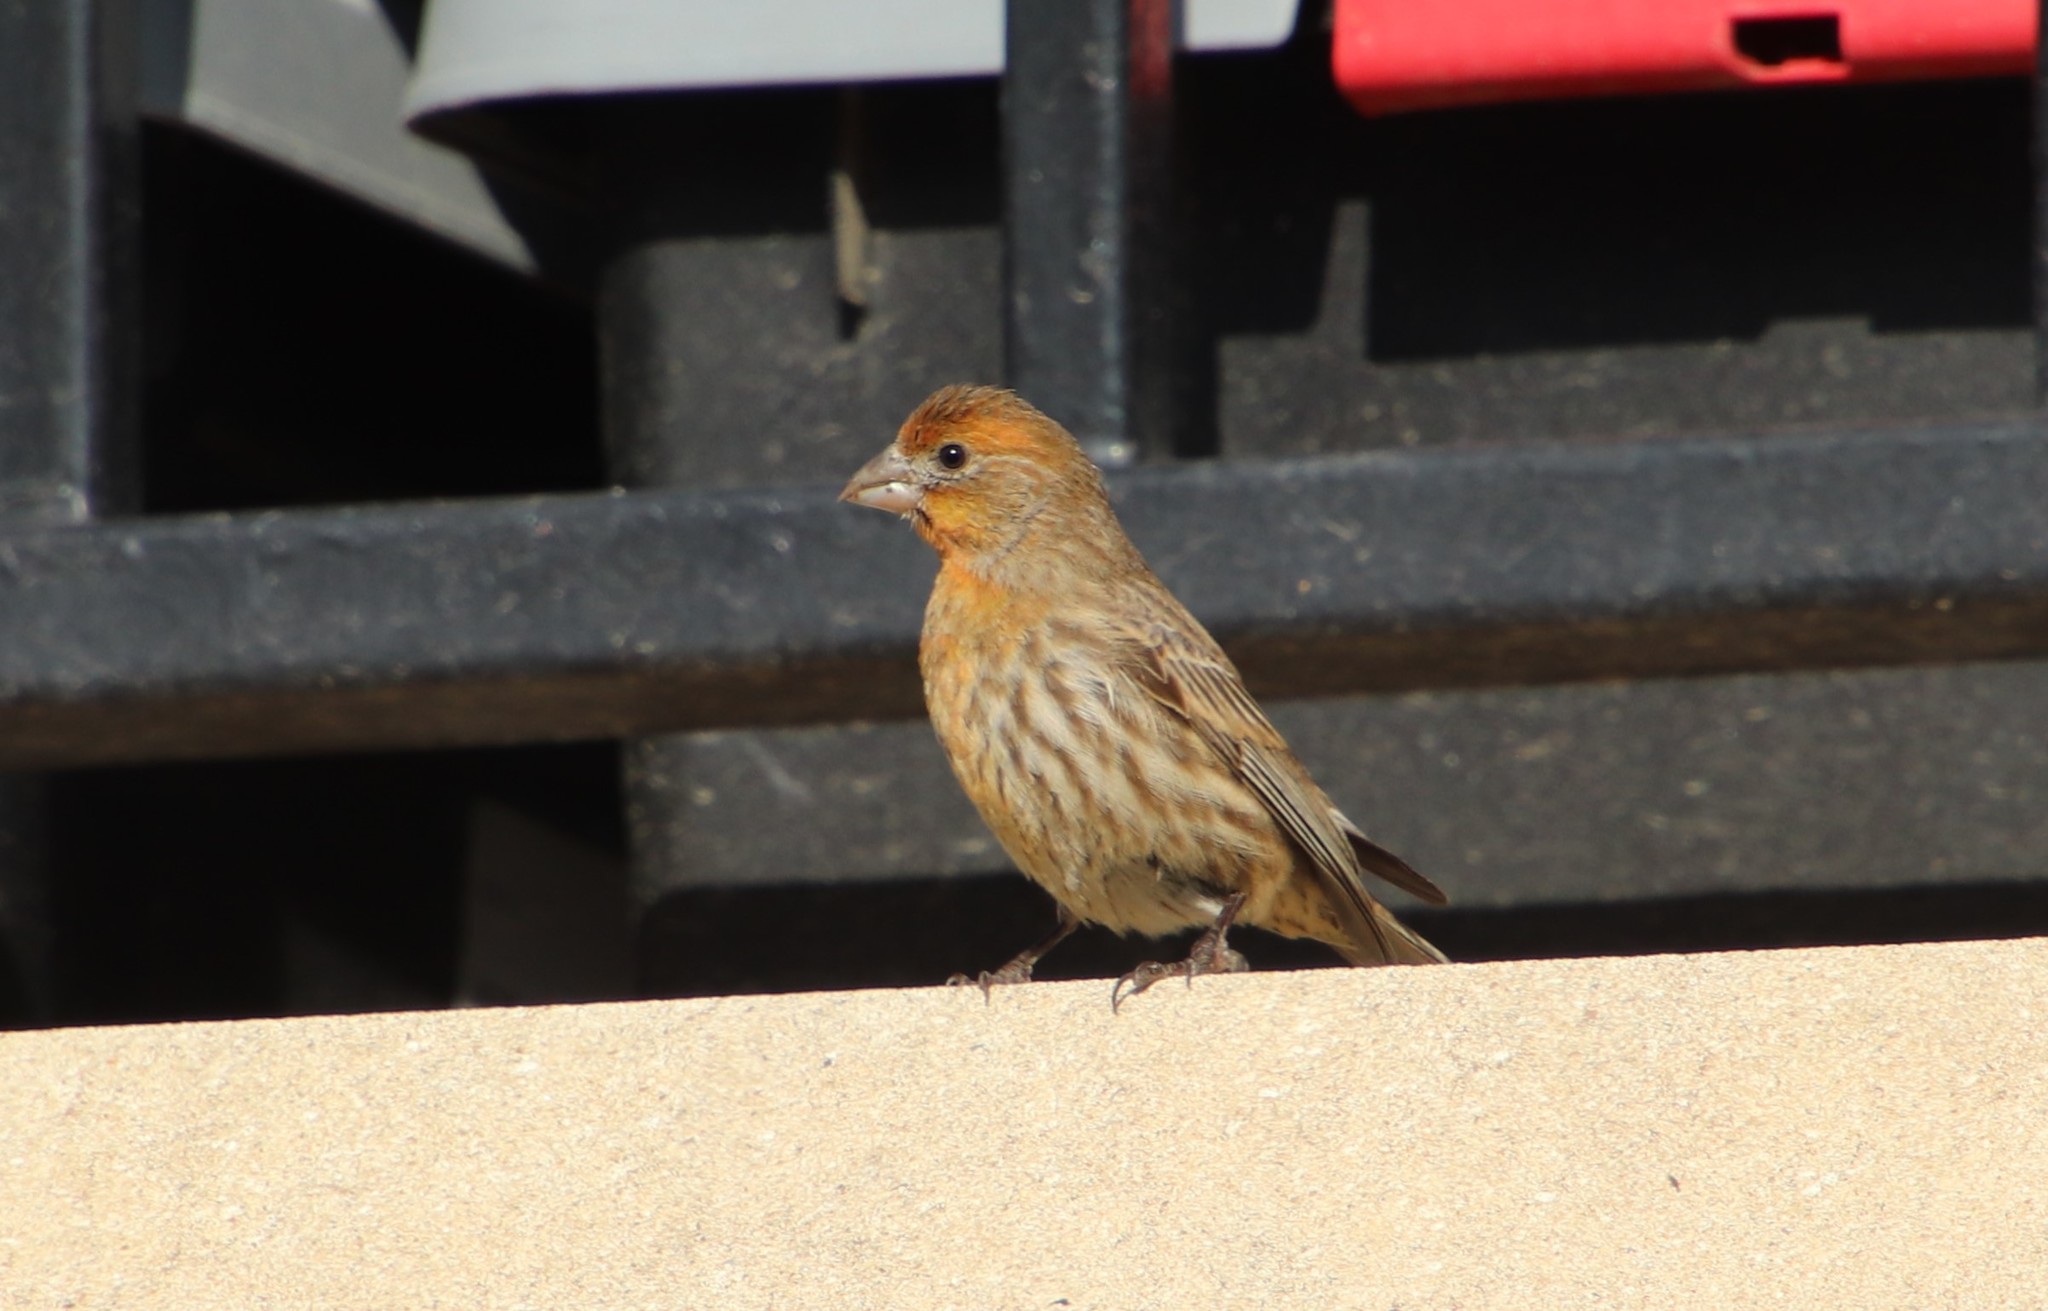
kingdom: Animalia
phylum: Chordata
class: Aves
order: Passeriformes
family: Fringillidae
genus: Haemorhous
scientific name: Haemorhous mexicanus
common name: House finch
